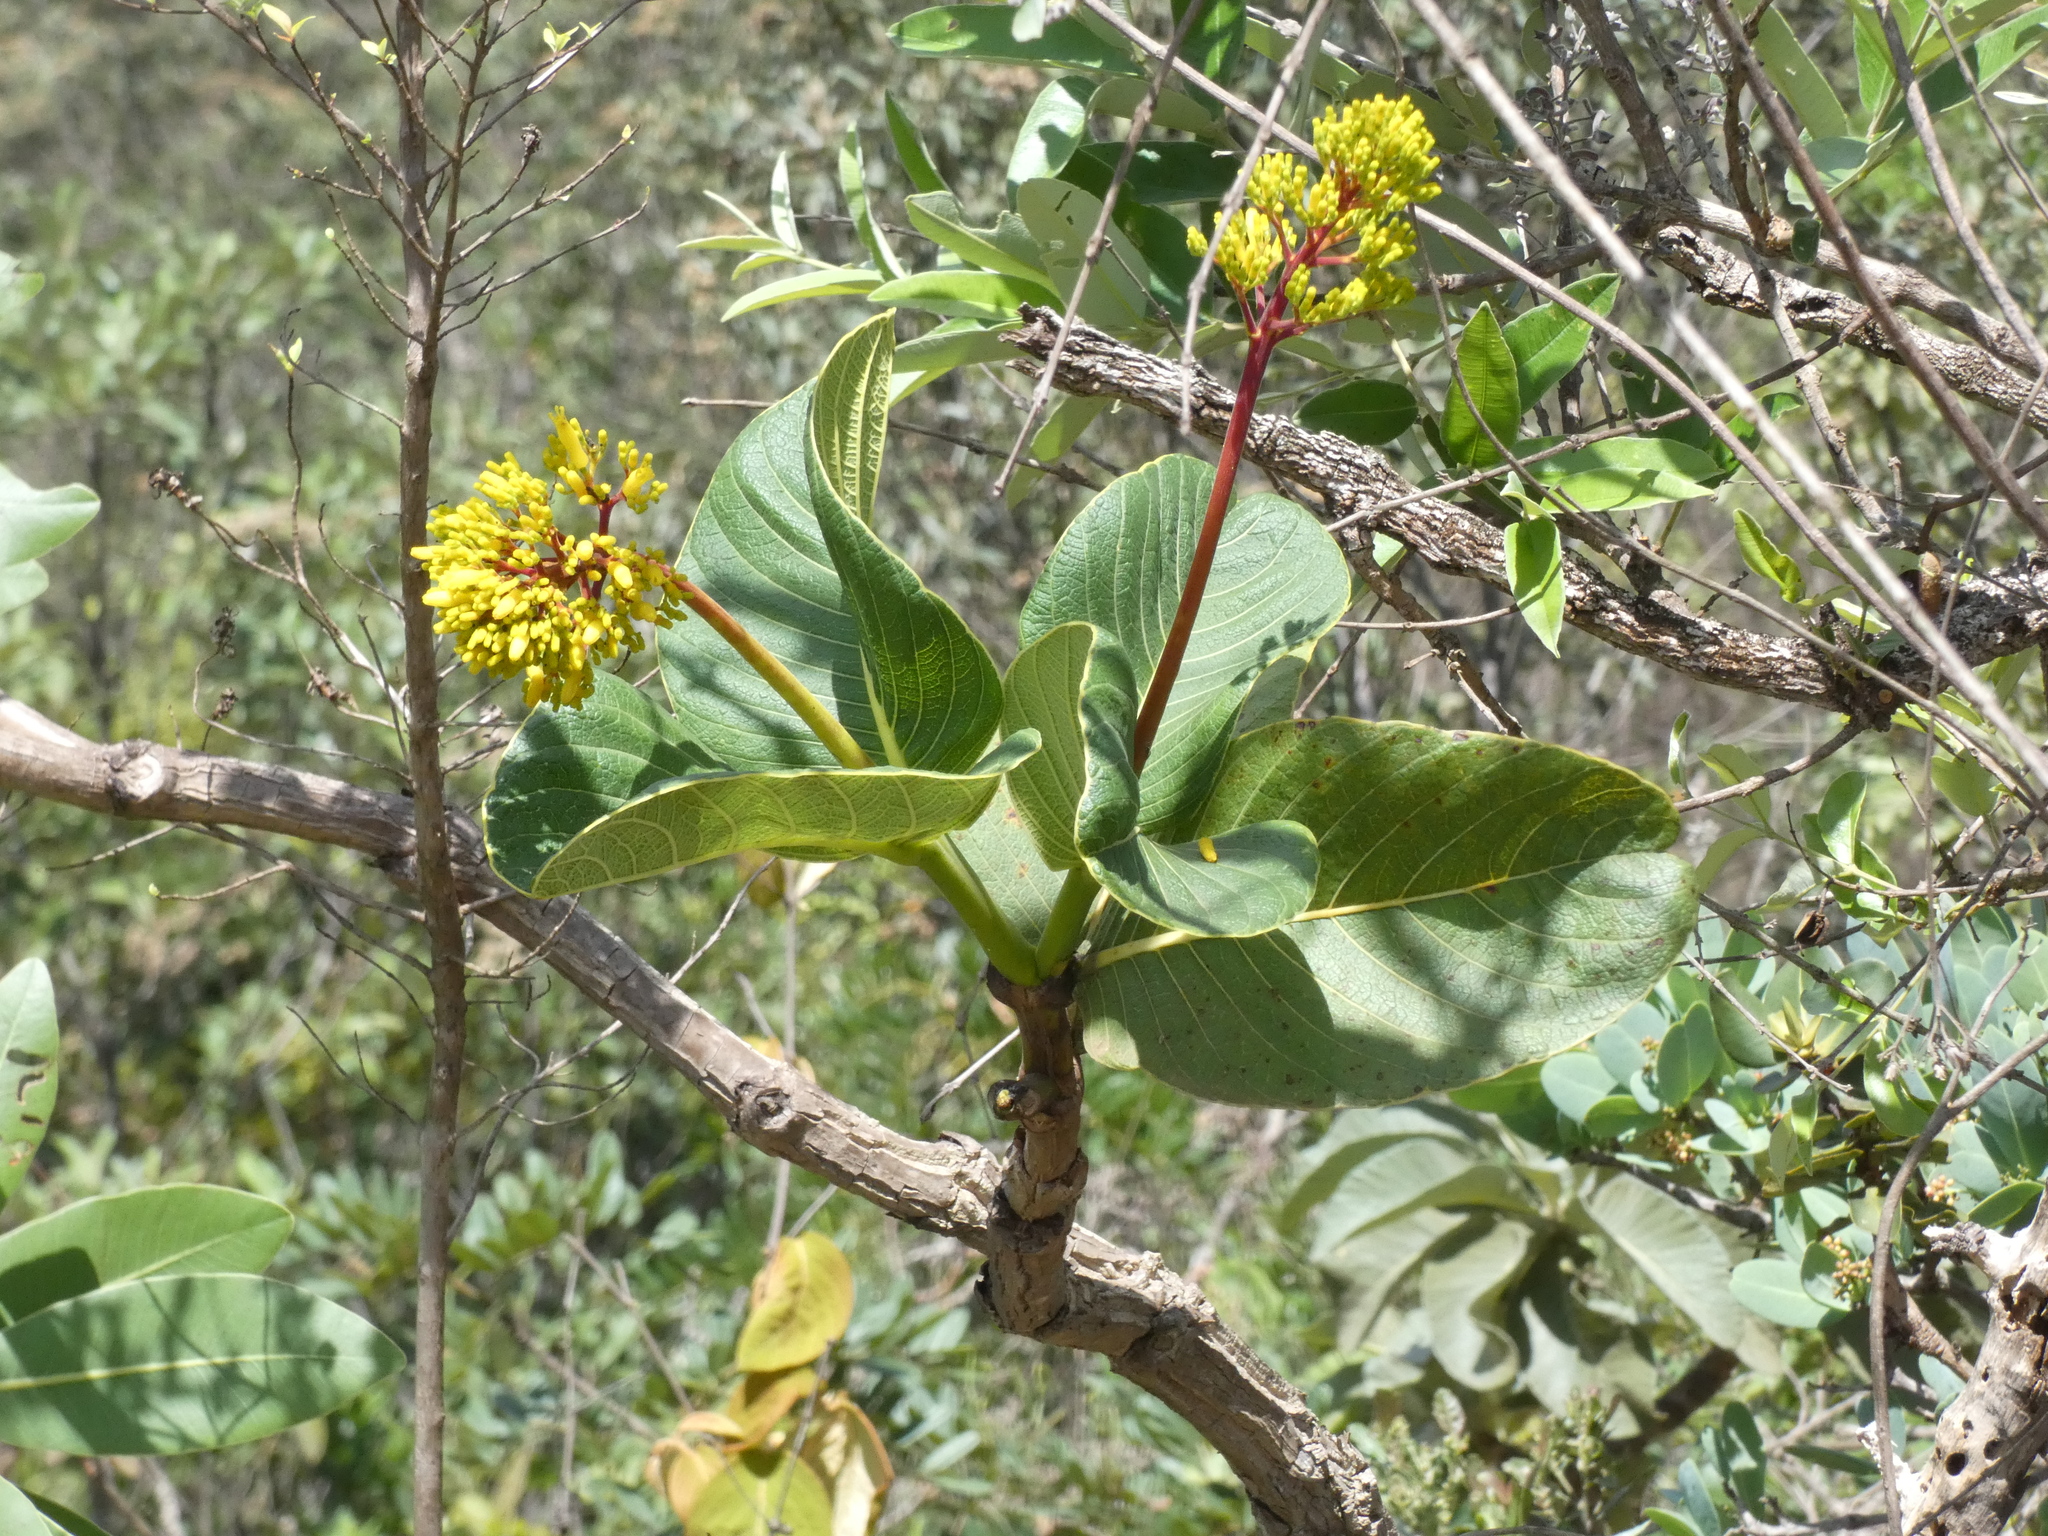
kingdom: Plantae
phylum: Tracheophyta
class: Magnoliopsida
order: Gentianales
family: Rubiaceae
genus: Palicourea
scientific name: Palicourea rigida
